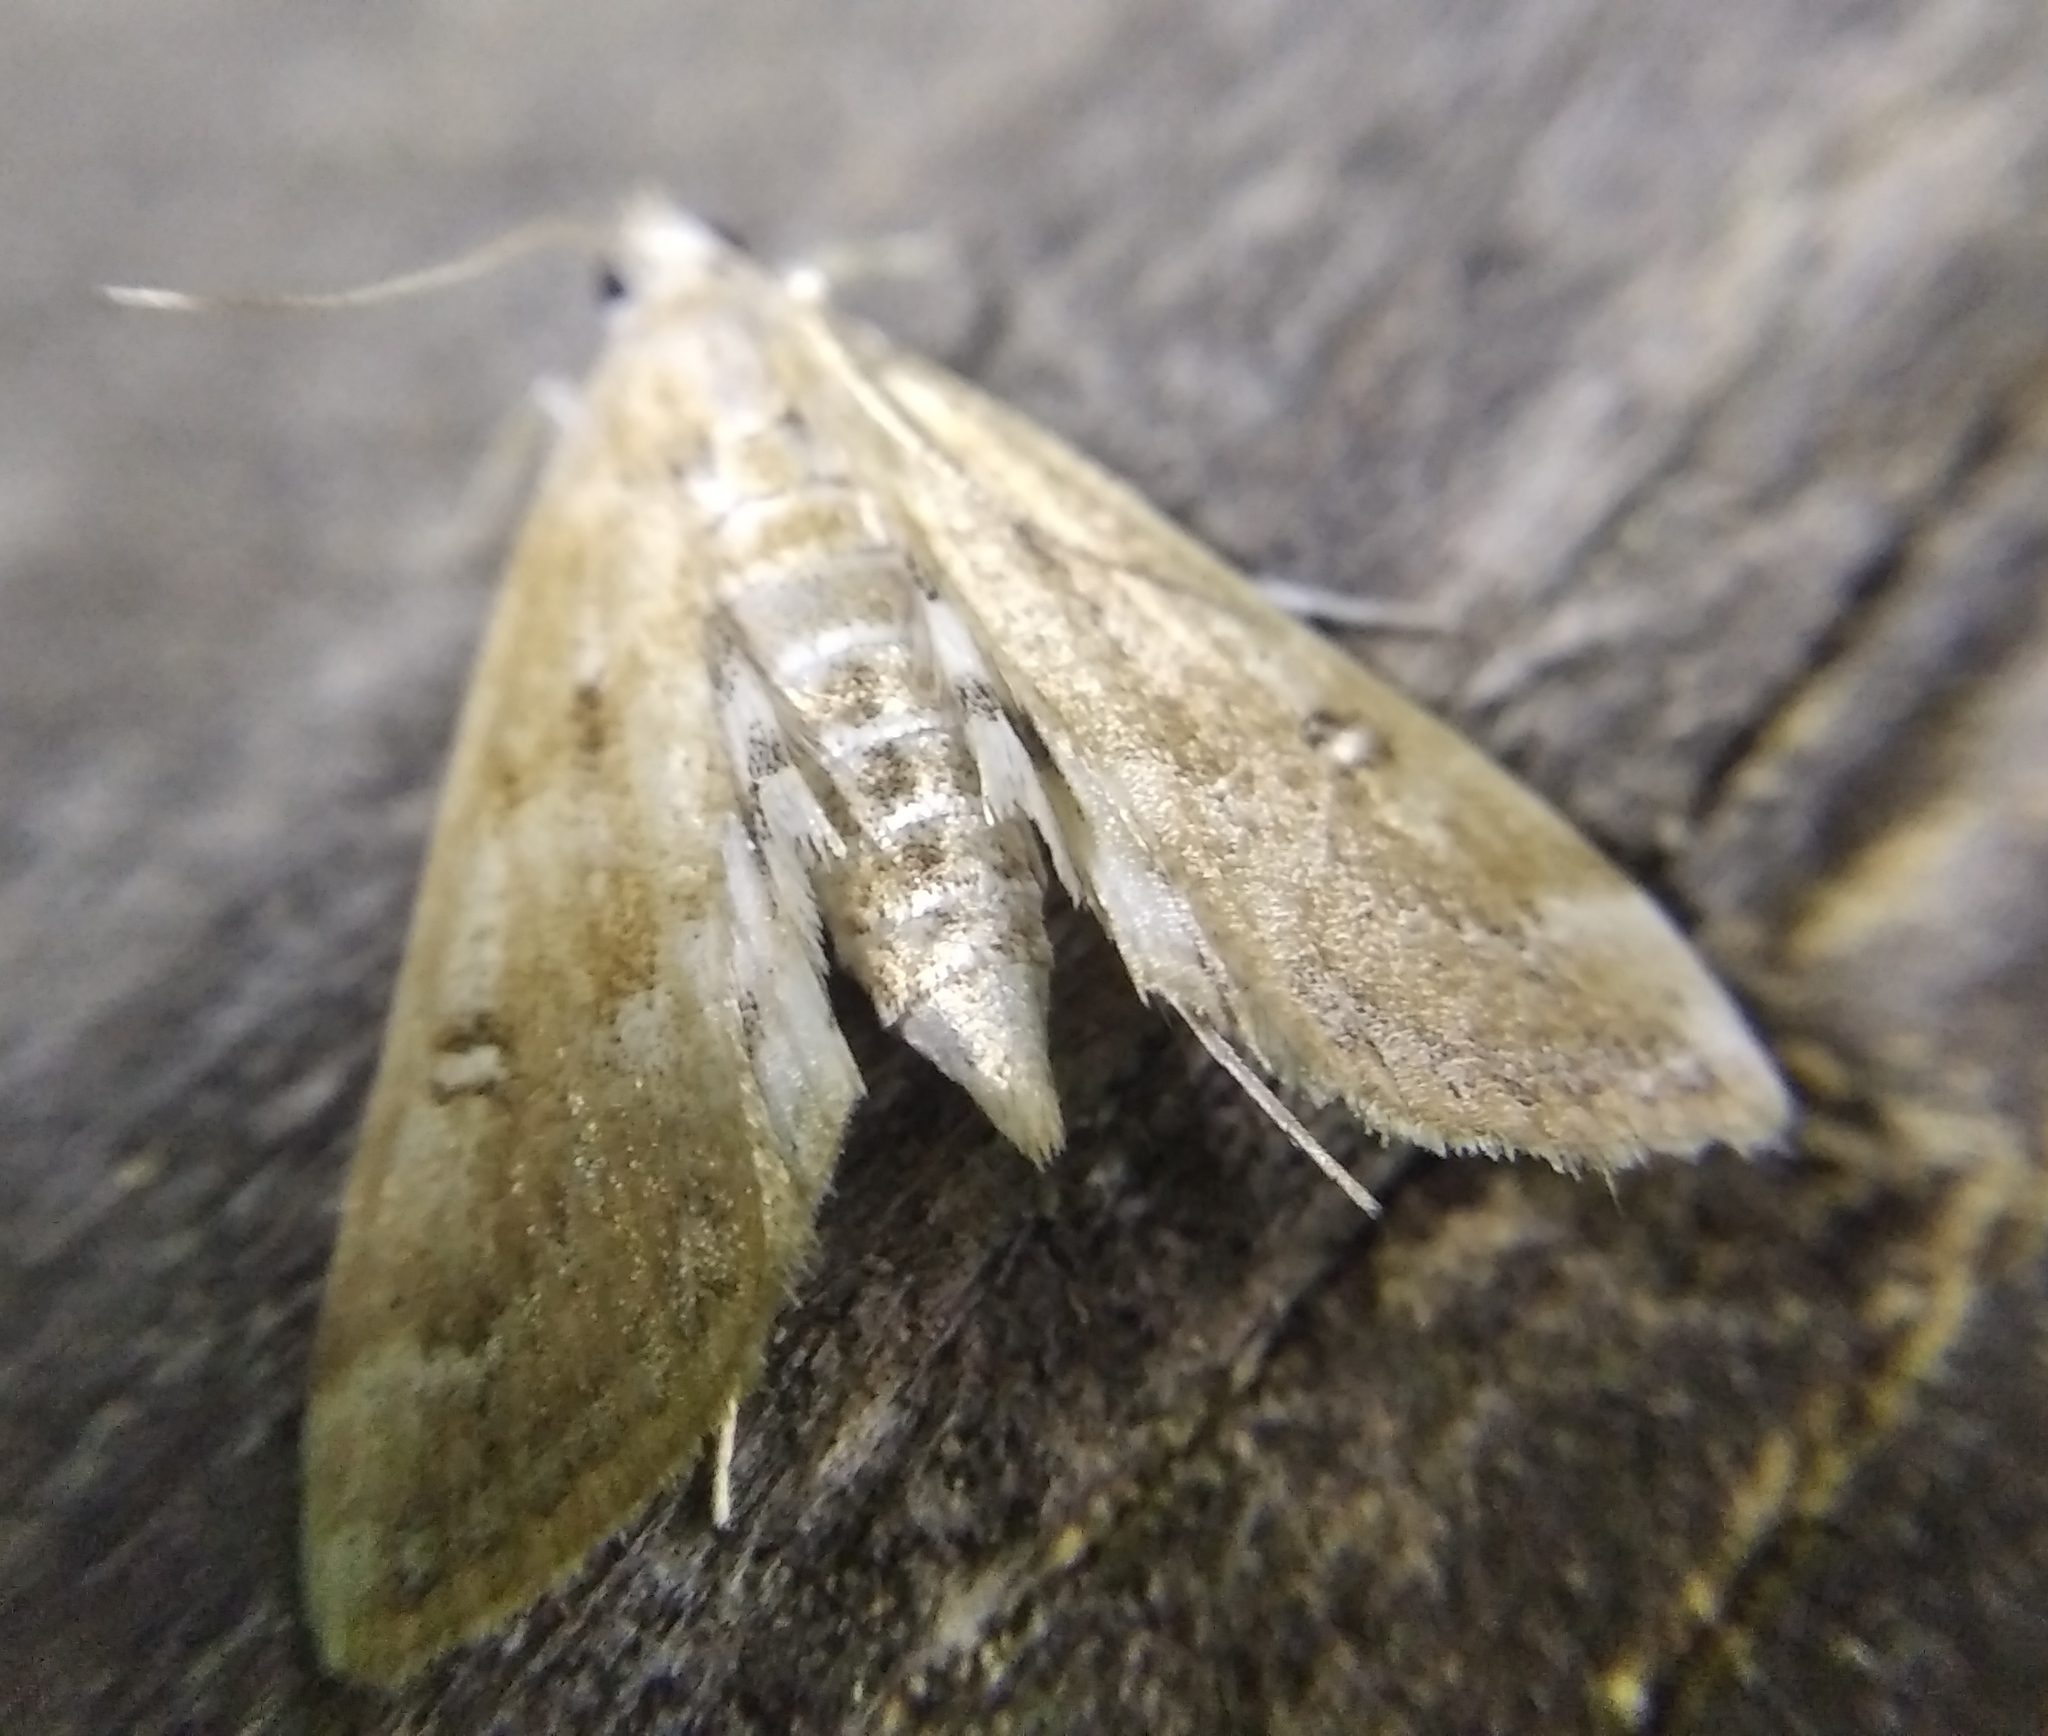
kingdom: Animalia
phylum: Arthropoda
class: Insecta
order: Lepidoptera
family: Crambidae
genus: Parapoynx
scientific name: Parapoynx stratiotata
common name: Ringed china-mark
